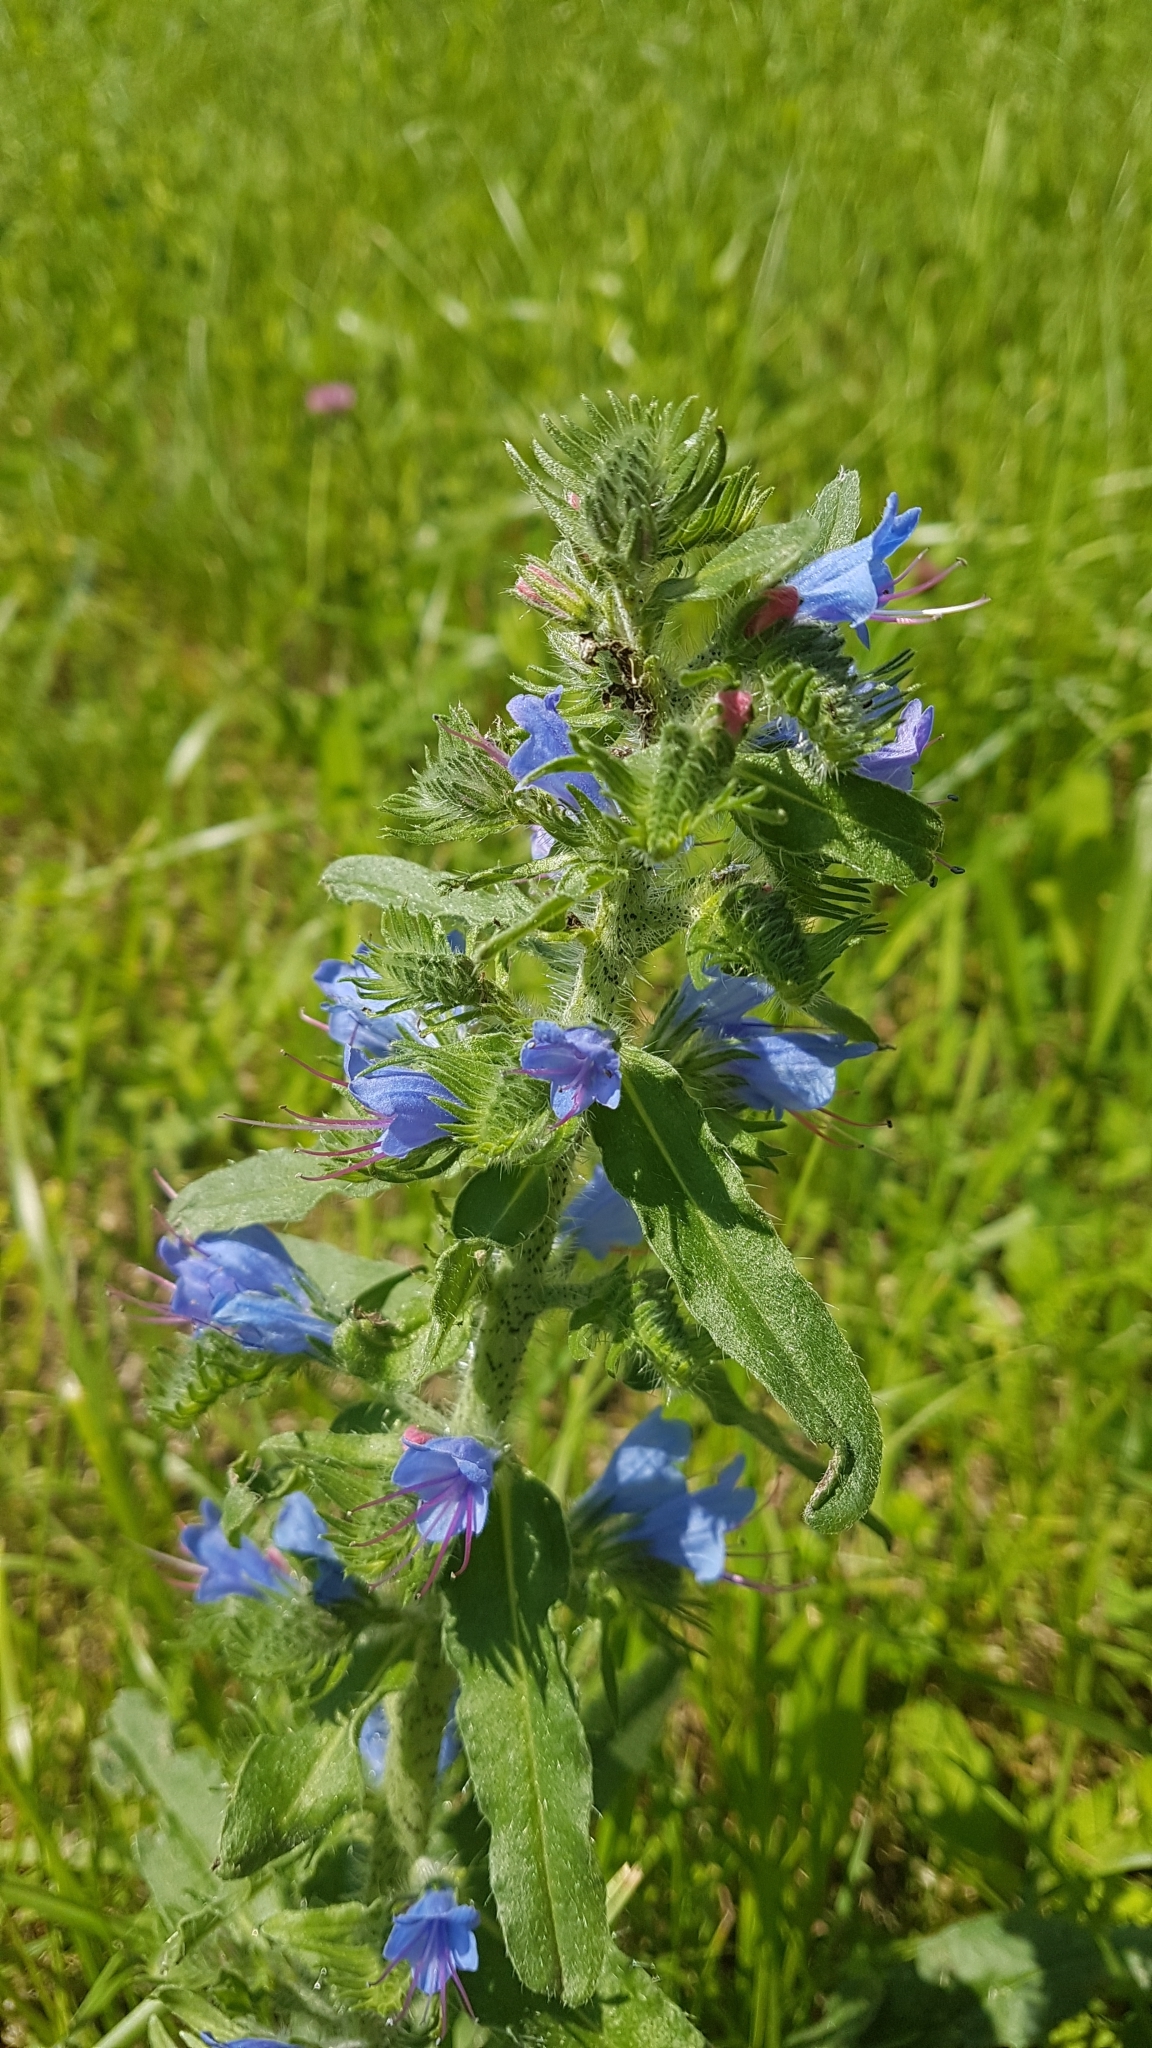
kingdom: Plantae
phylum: Tracheophyta
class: Magnoliopsida
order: Boraginales
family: Boraginaceae
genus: Echium
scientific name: Echium vulgare
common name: Common viper's bugloss
